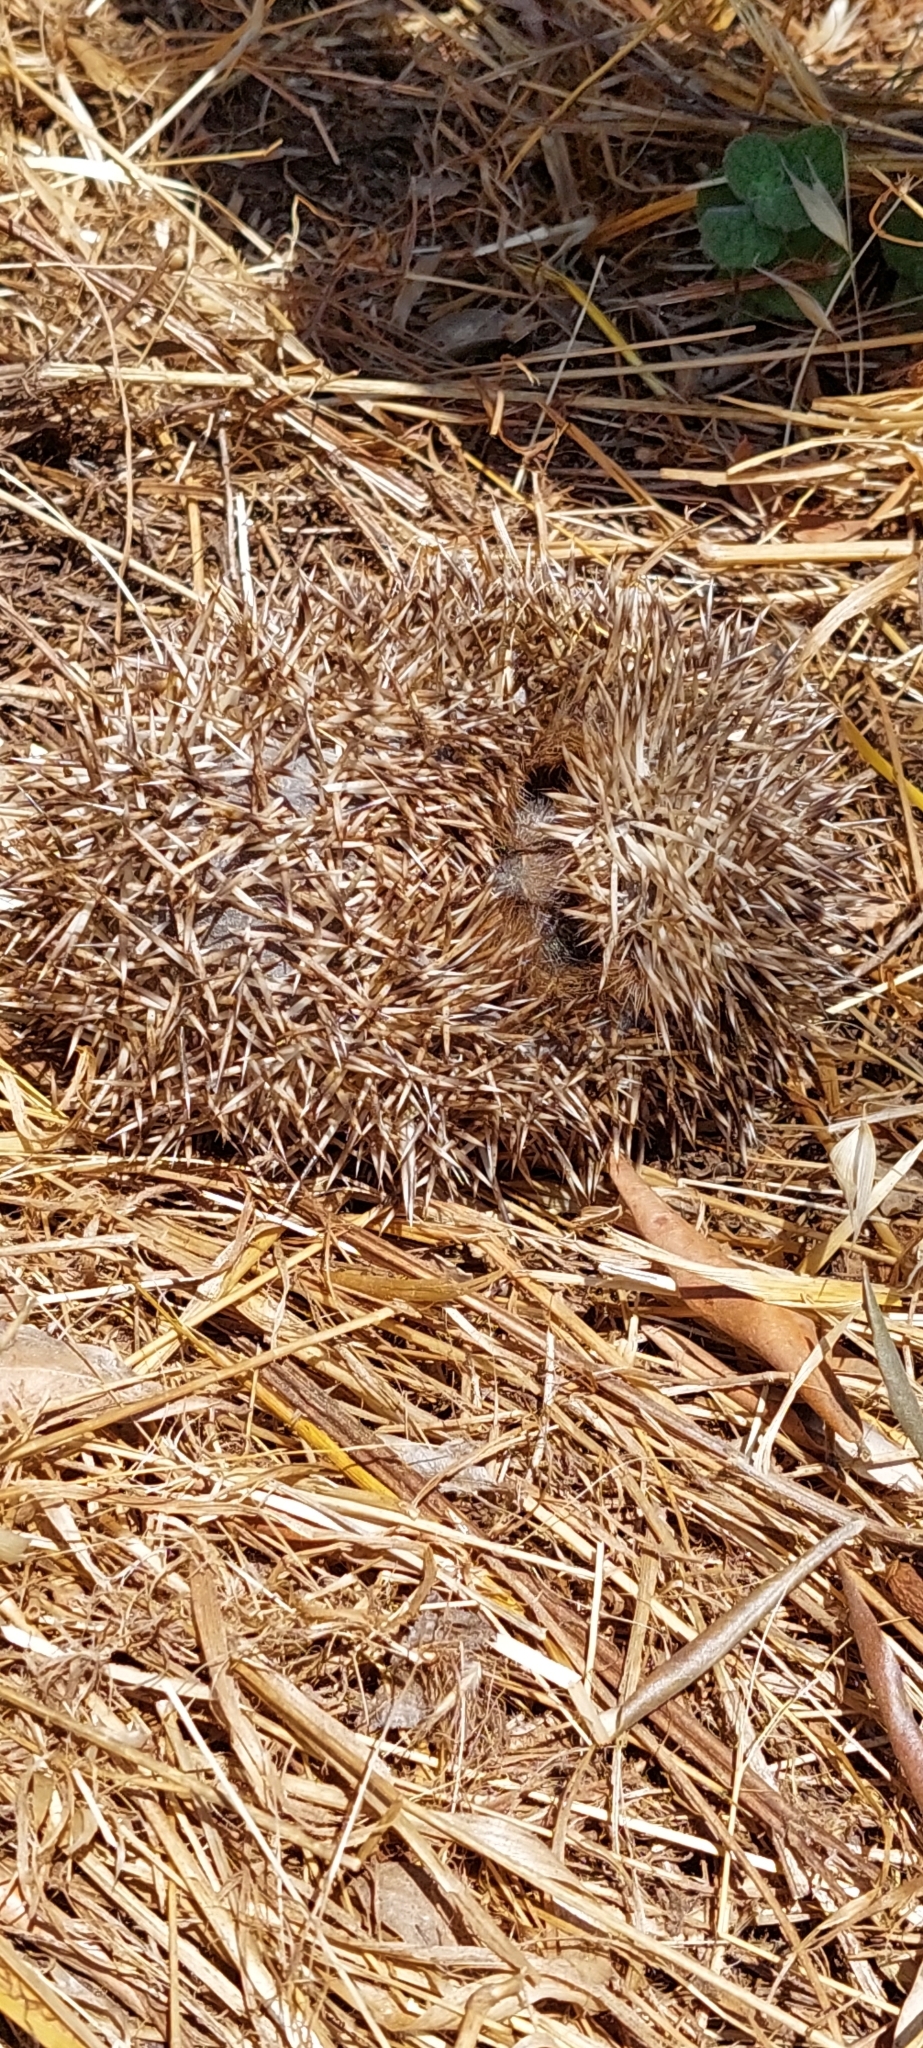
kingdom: Animalia
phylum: Chordata
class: Mammalia
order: Erinaceomorpha
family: Erinaceidae
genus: Erinaceus
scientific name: Erinaceus europaeus
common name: West european hedgehog
